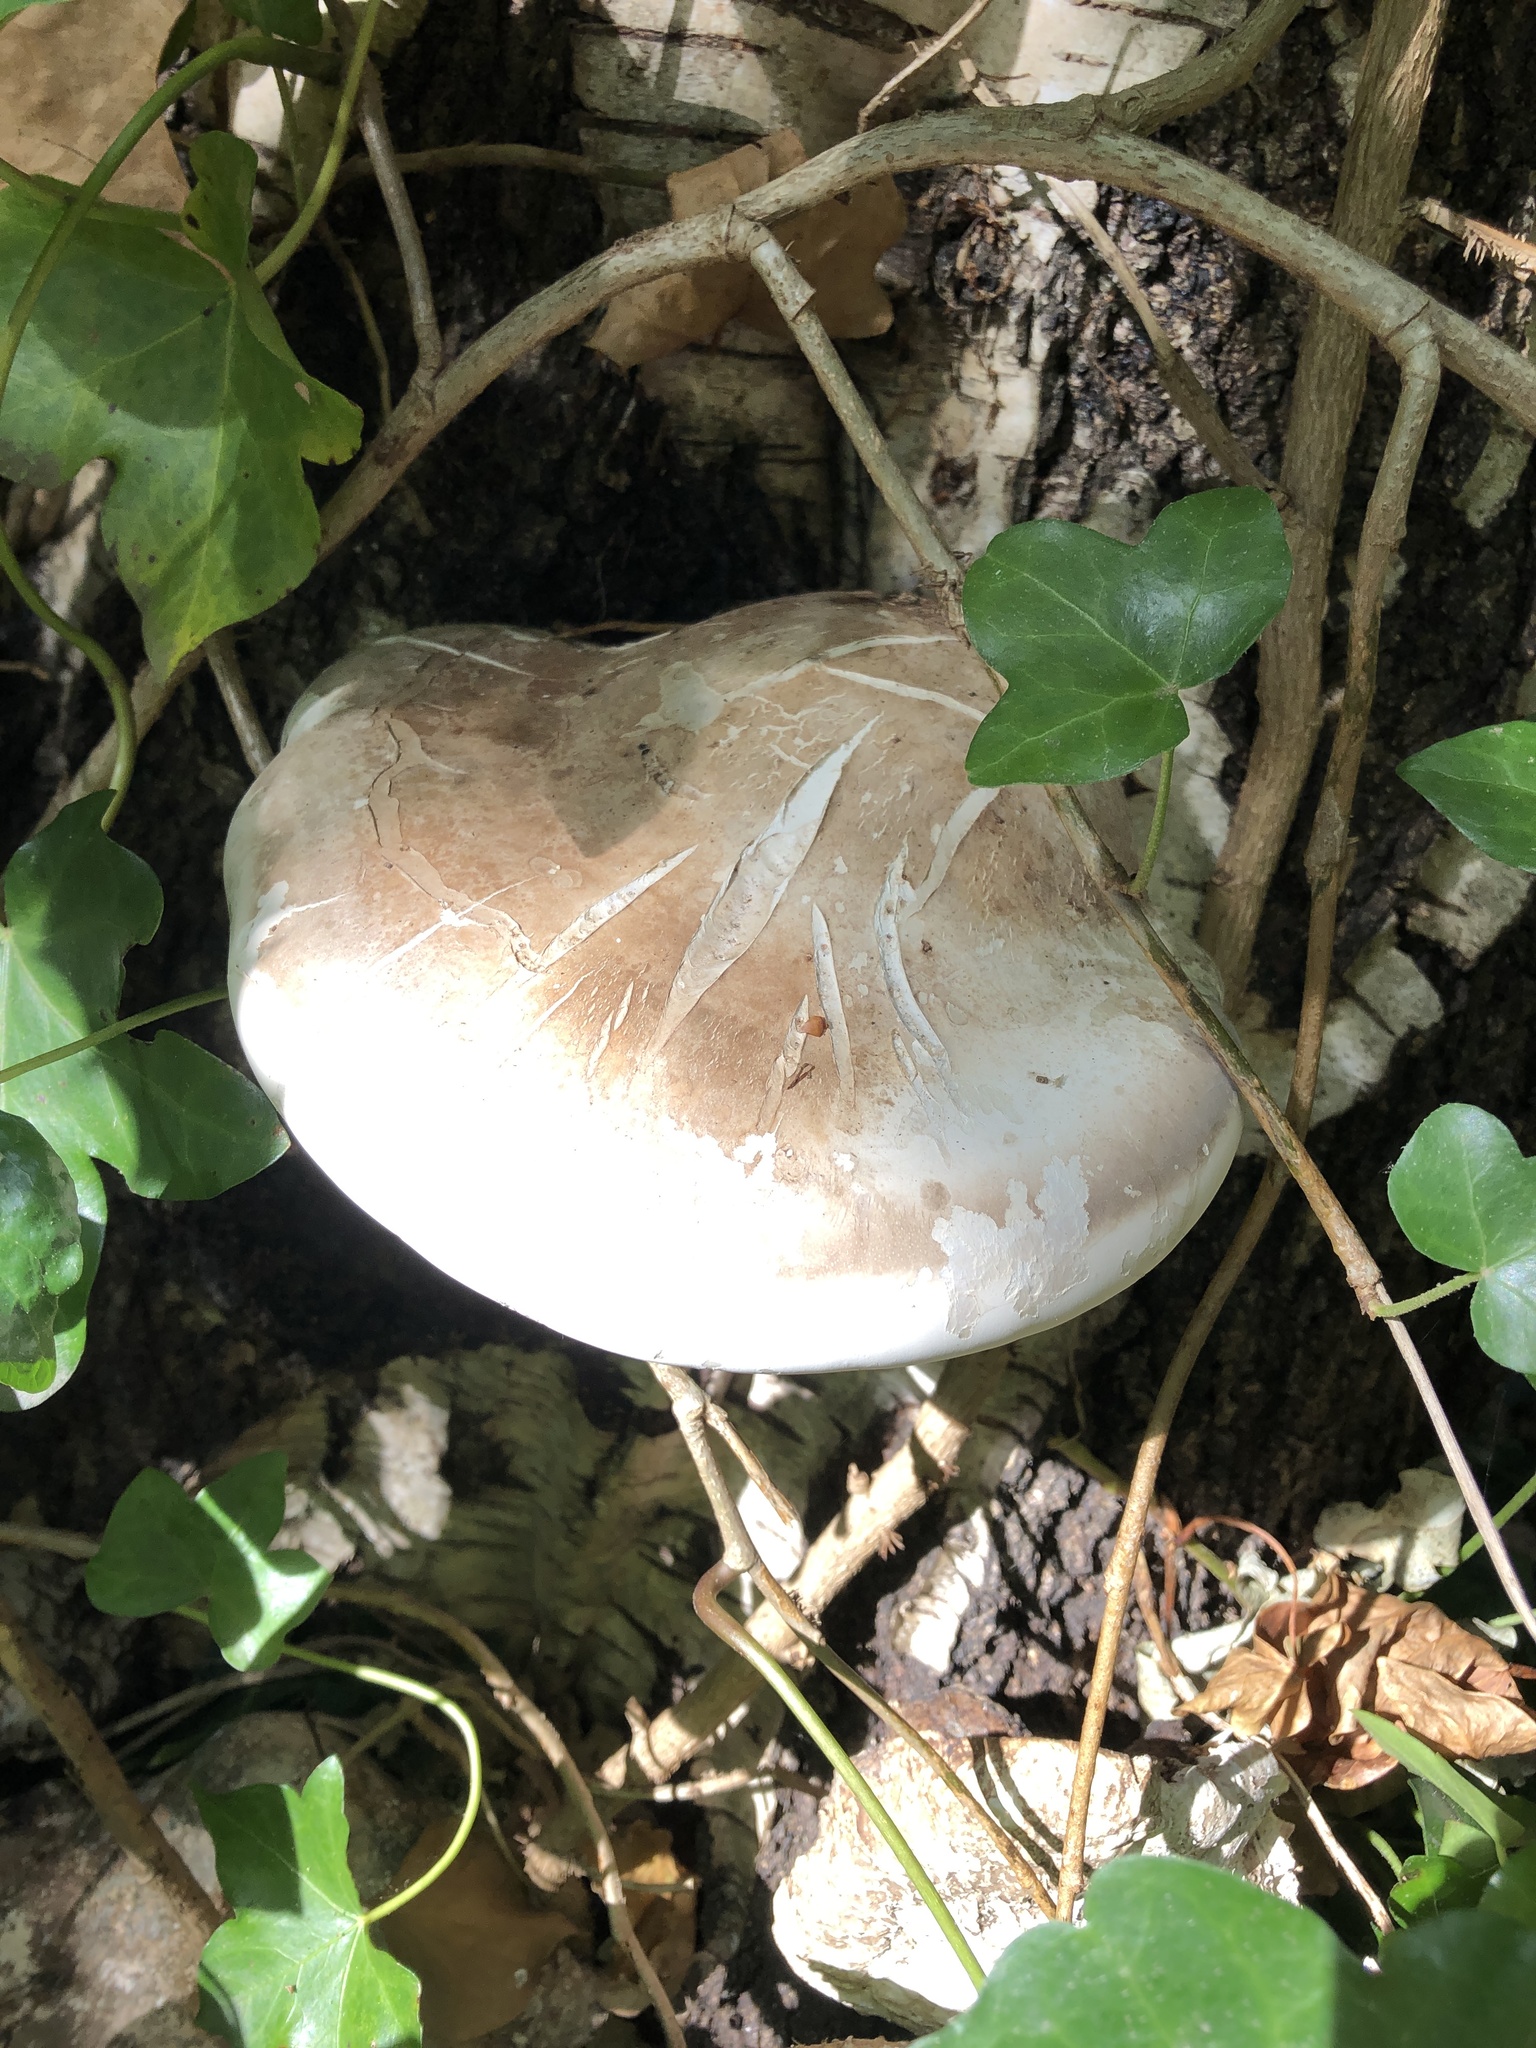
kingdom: Fungi
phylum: Basidiomycota
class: Agaricomycetes
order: Polyporales
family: Fomitopsidaceae
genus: Fomitopsis
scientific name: Fomitopsis betulina
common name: Birch polypore
